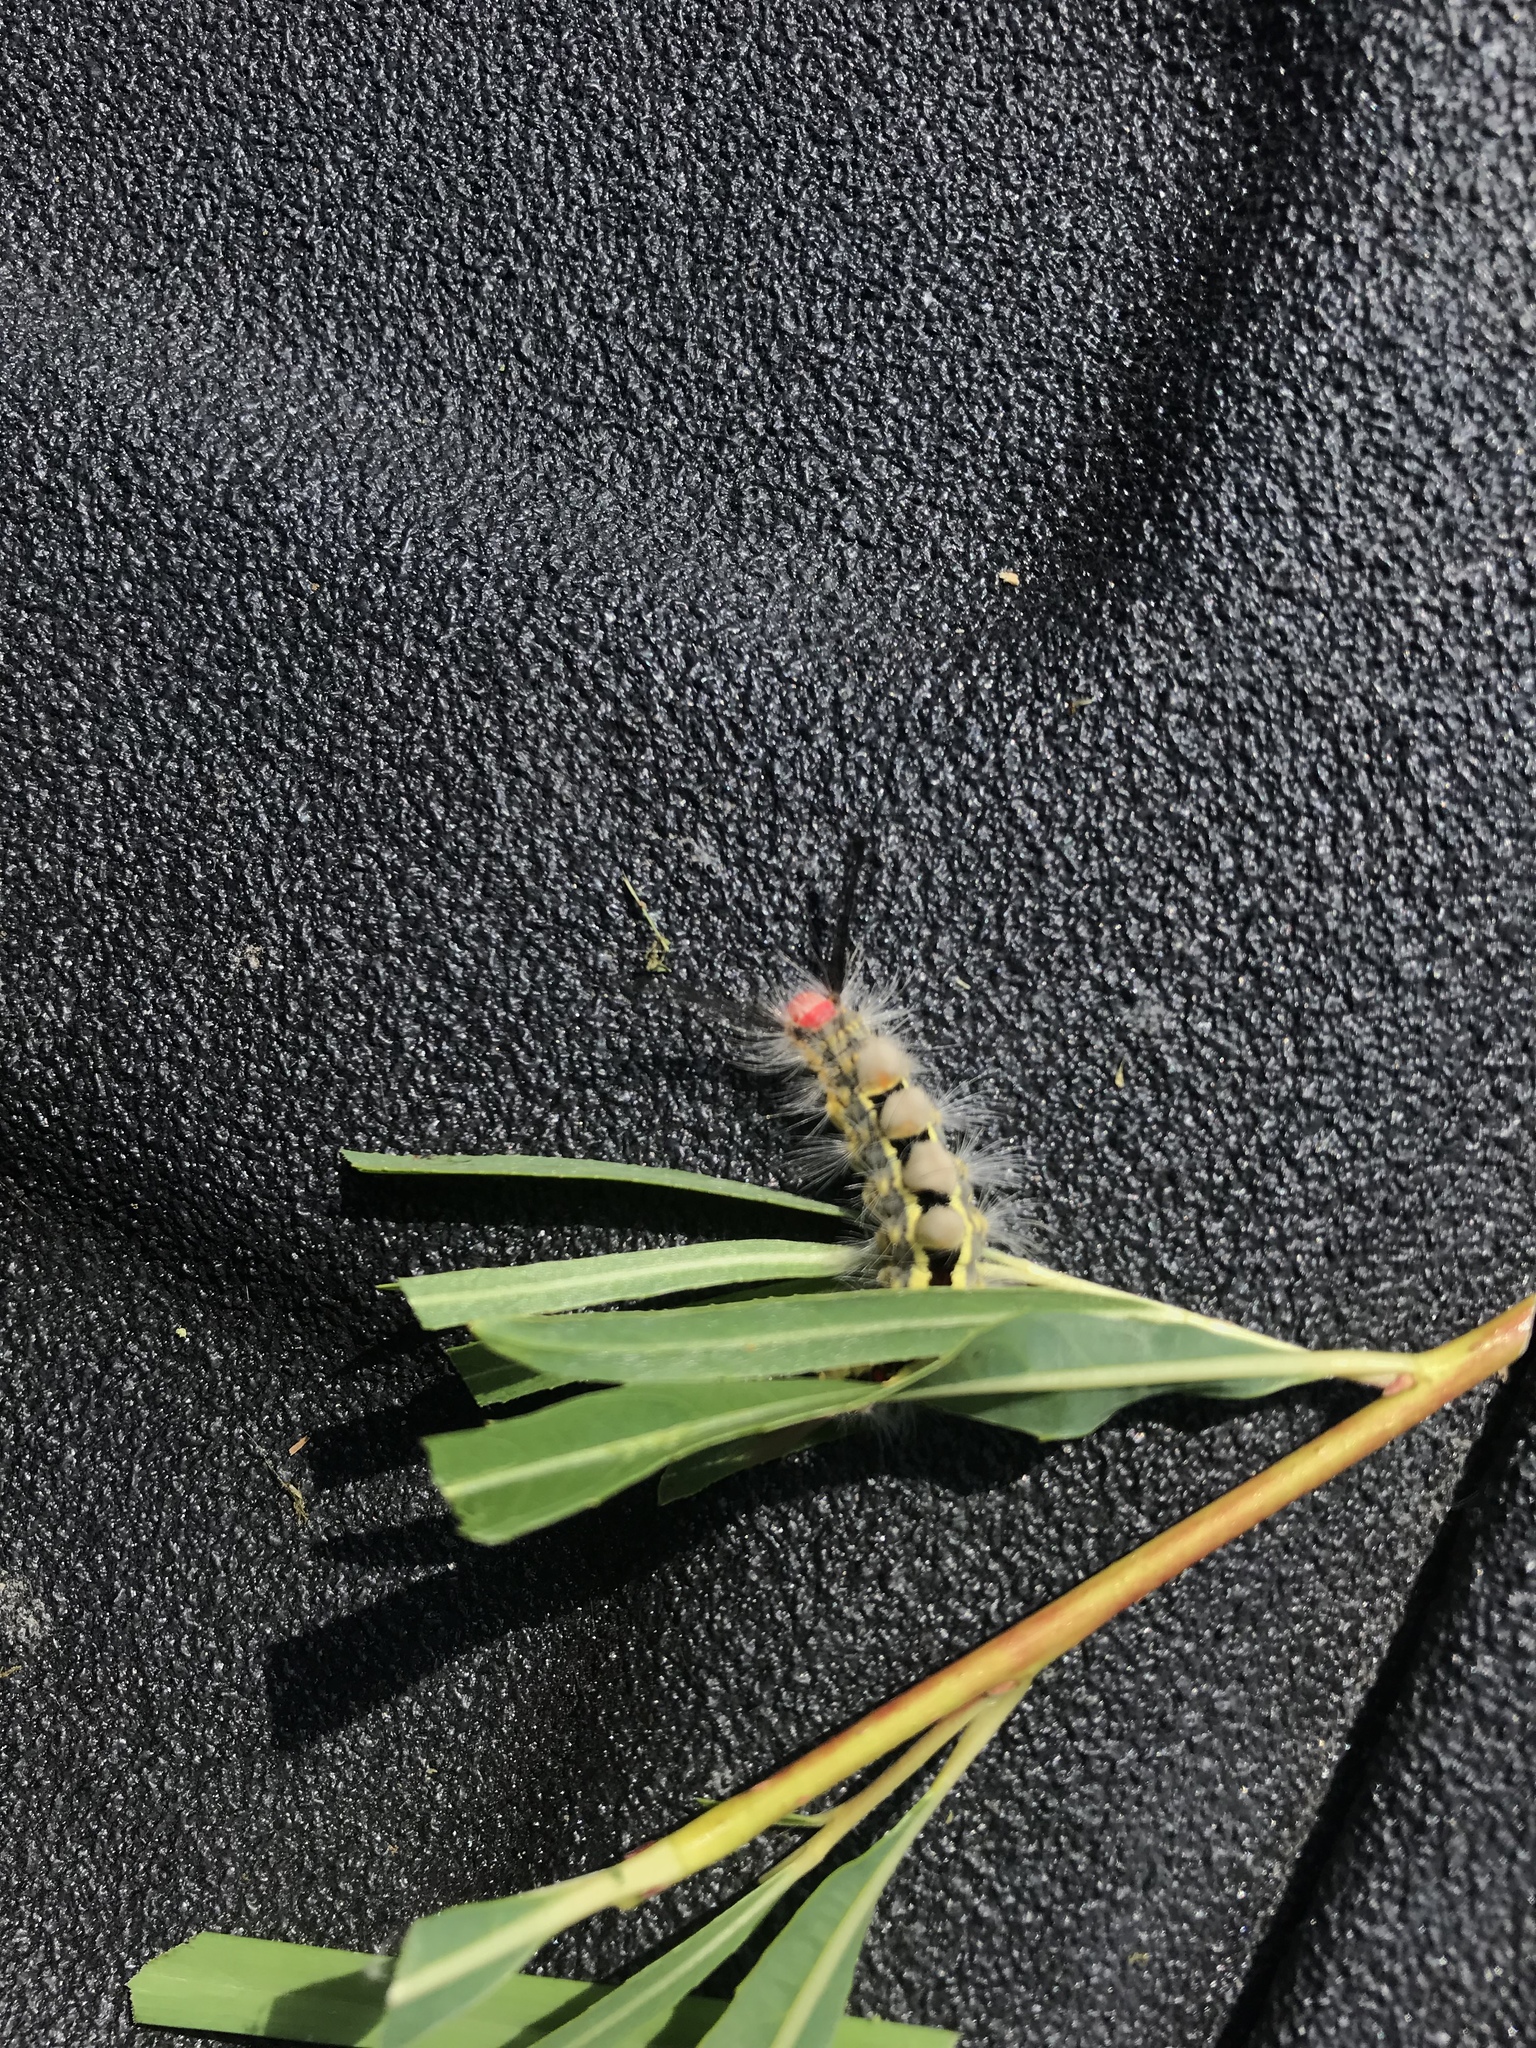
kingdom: Animalia
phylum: Arthropoda
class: Insecta
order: Lepidoptera
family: Erebidae
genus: Orgyia
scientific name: Orgyia leucostigma
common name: White-marked tussock moth
